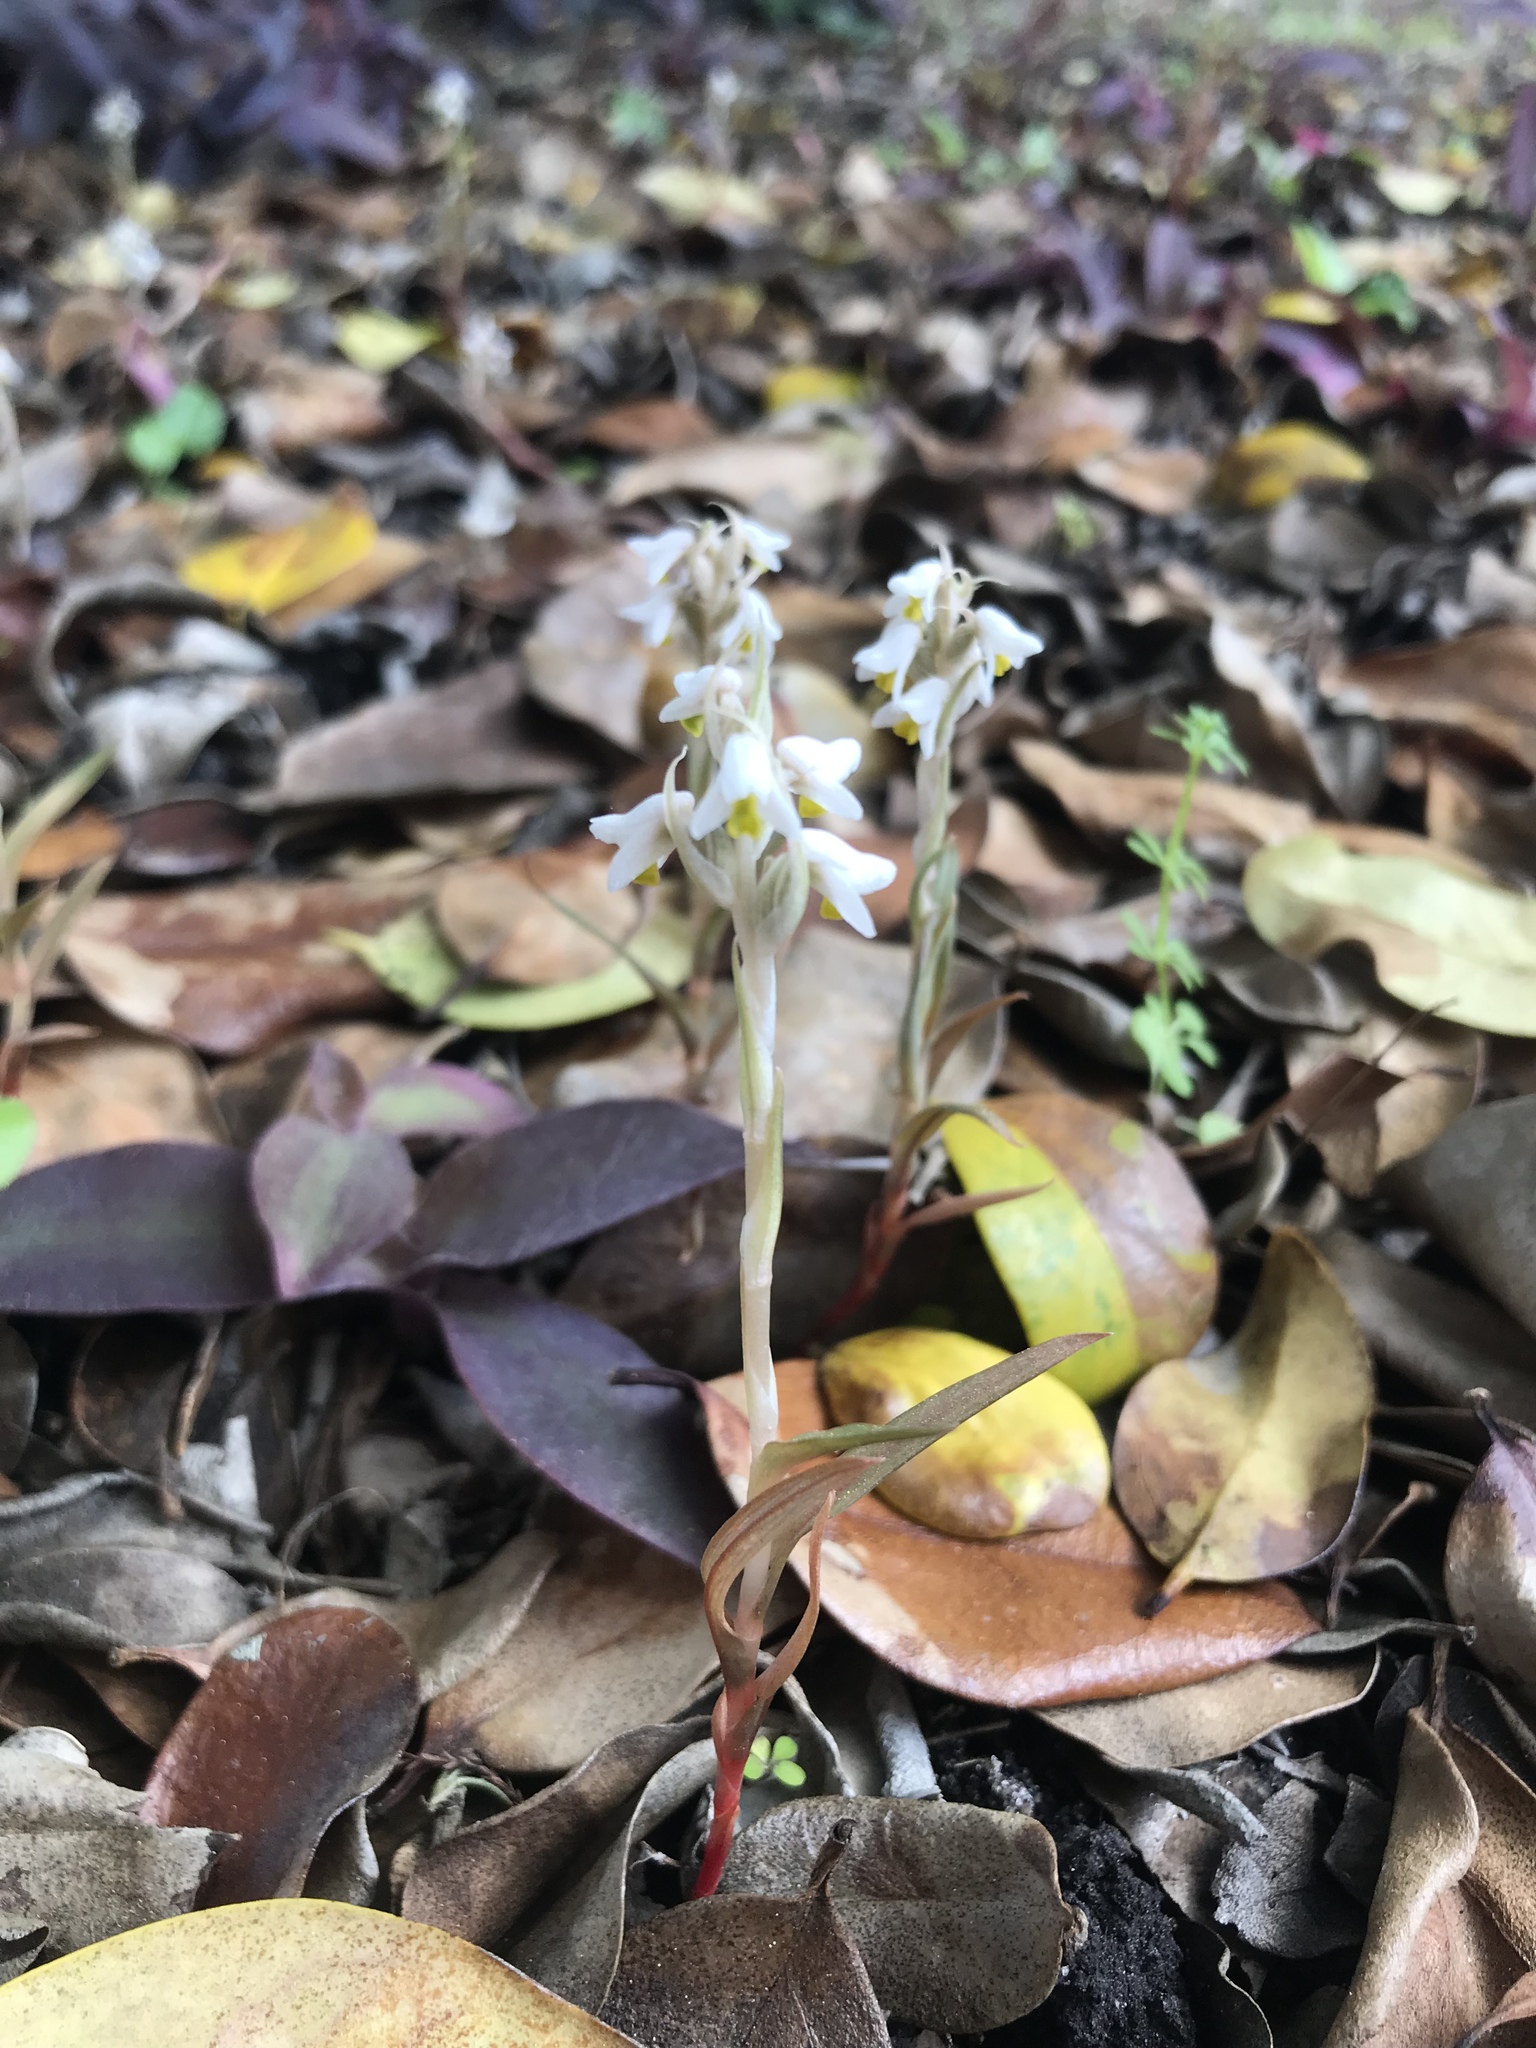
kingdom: Plantae
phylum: Tracheophyta
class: Liliopsida
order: Asparagales
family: Orchidaceae
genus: Zeuxine
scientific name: Zeuxine strateumatica
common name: Soldier's orchid
